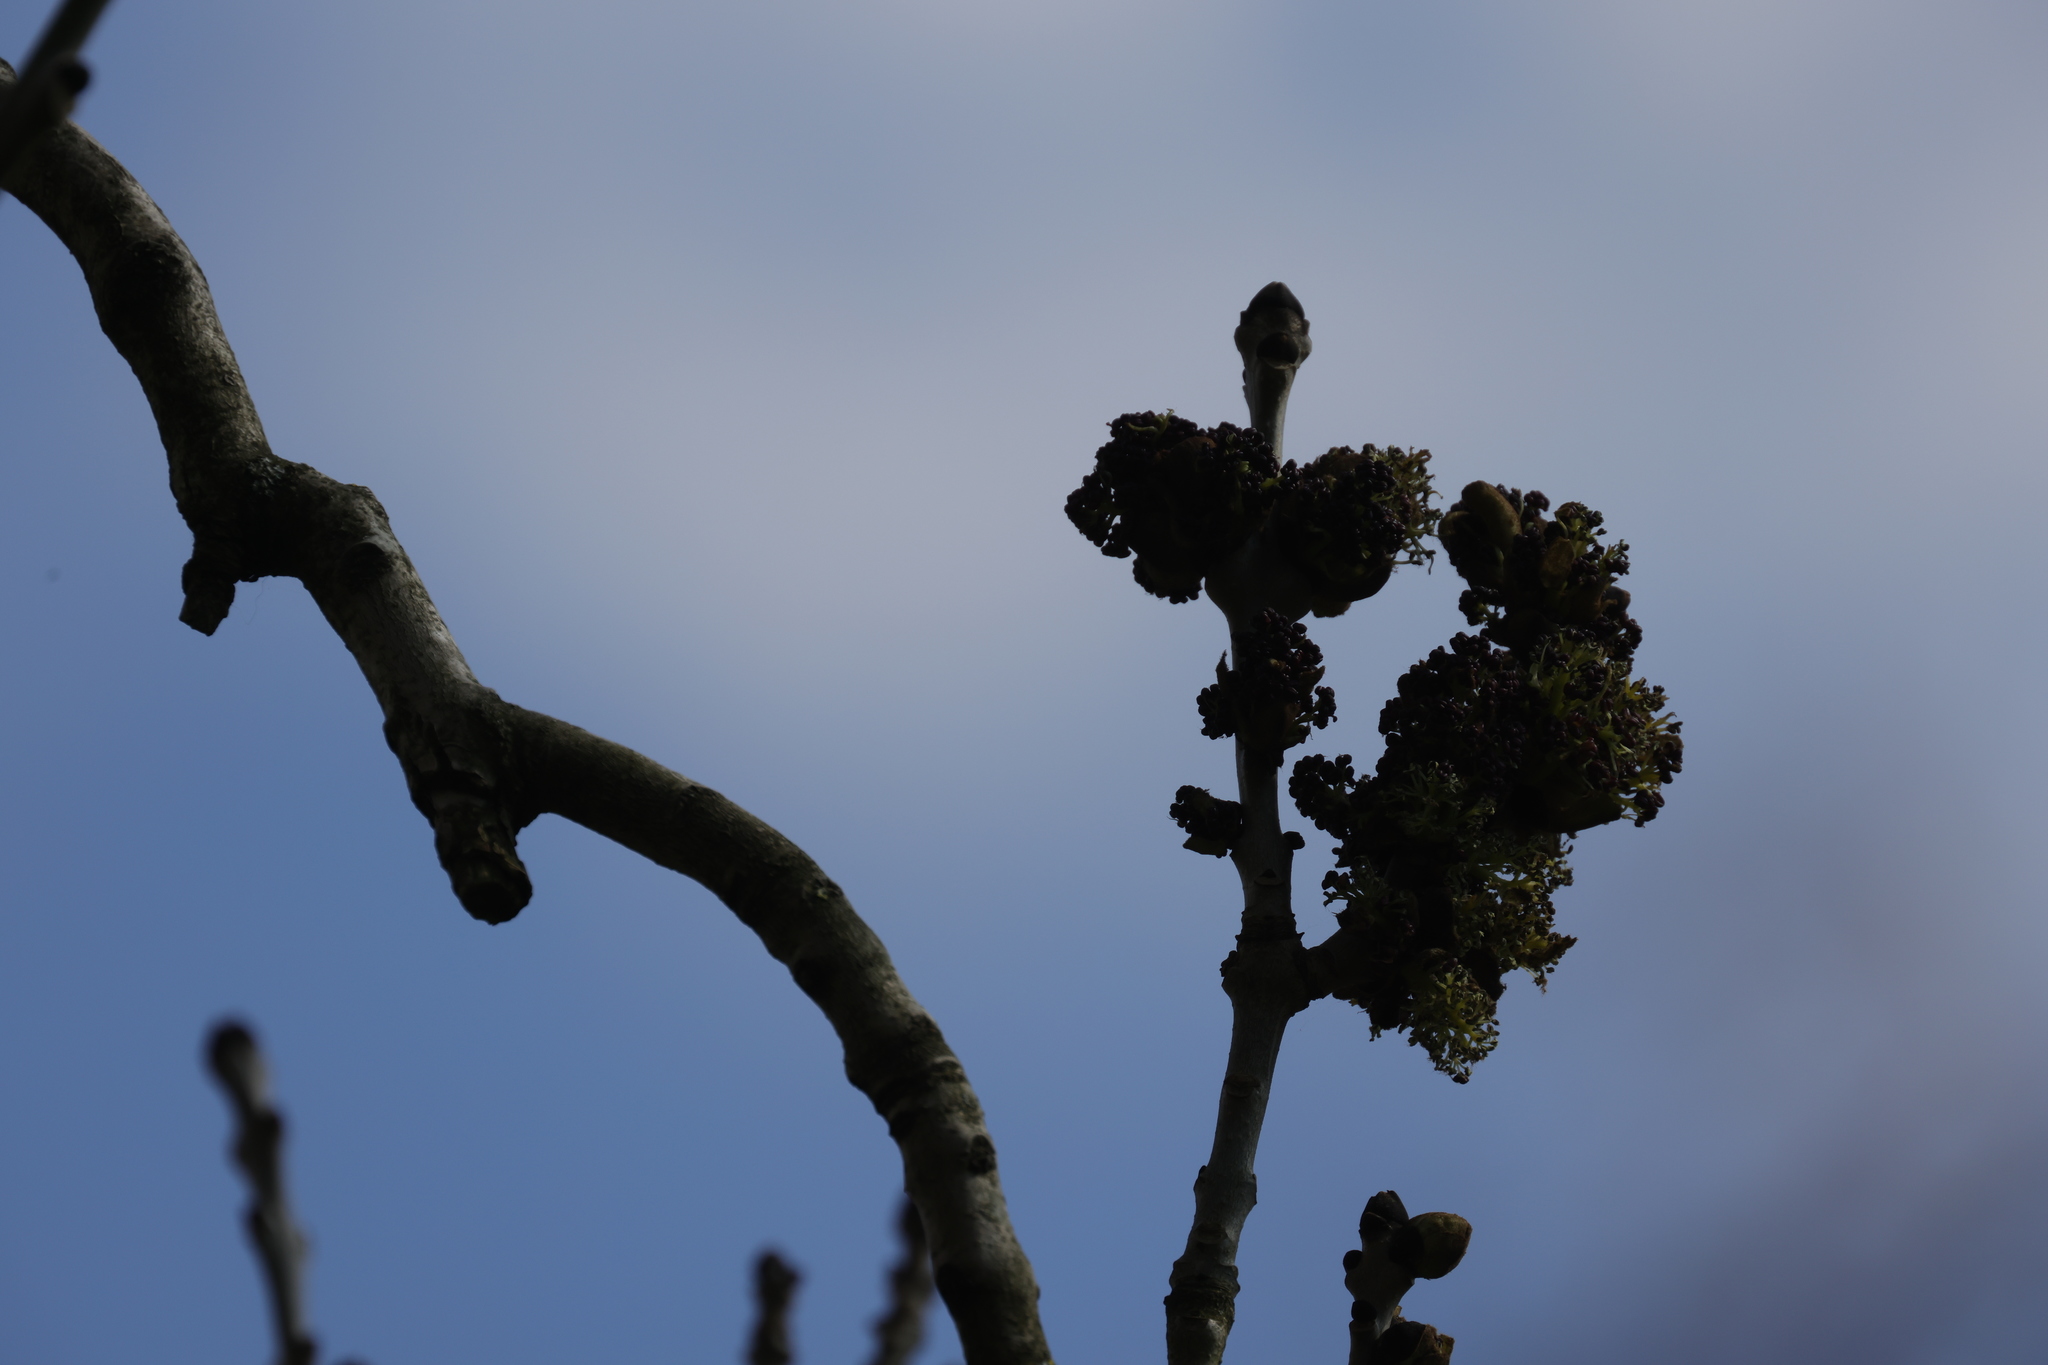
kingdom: Plantae
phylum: Tracheophyta
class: Magnoliopsida
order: Lamiales
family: Oleaceae
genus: Fraxinus
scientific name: Fraxinus excelsior
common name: European ash
